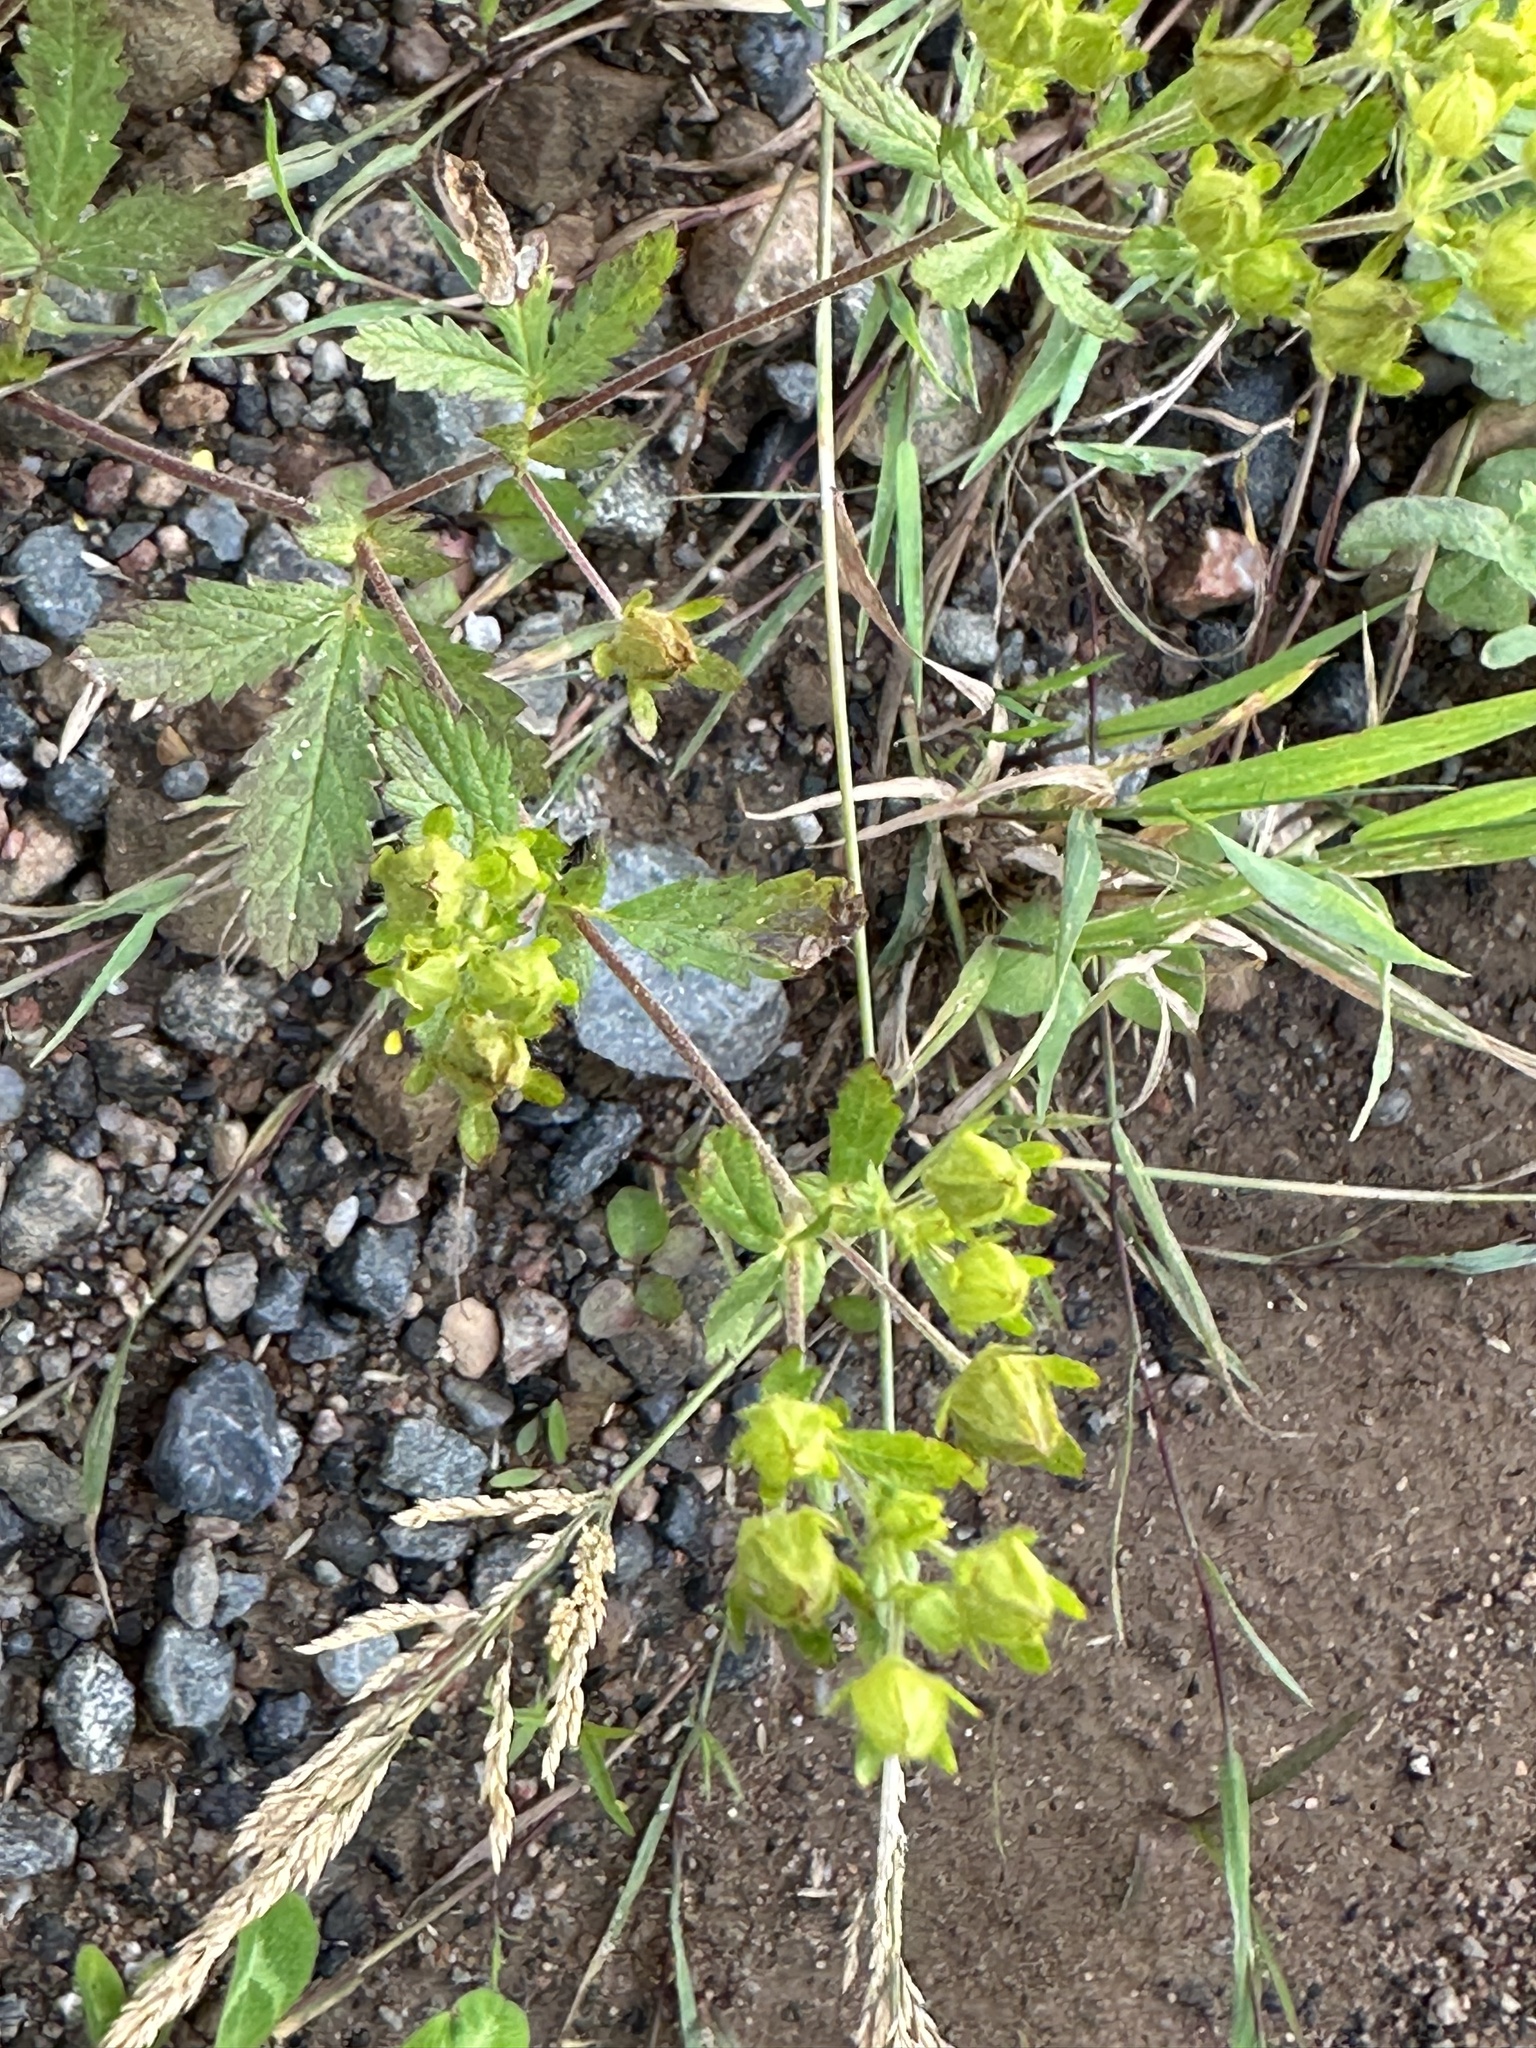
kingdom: Plantae
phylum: Tracheophyta
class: Magnoliopsida
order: Rosales
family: Rosaceae
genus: Potentilla
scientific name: Potentilla norvegica
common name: Ternate-leaved cinquefoil
